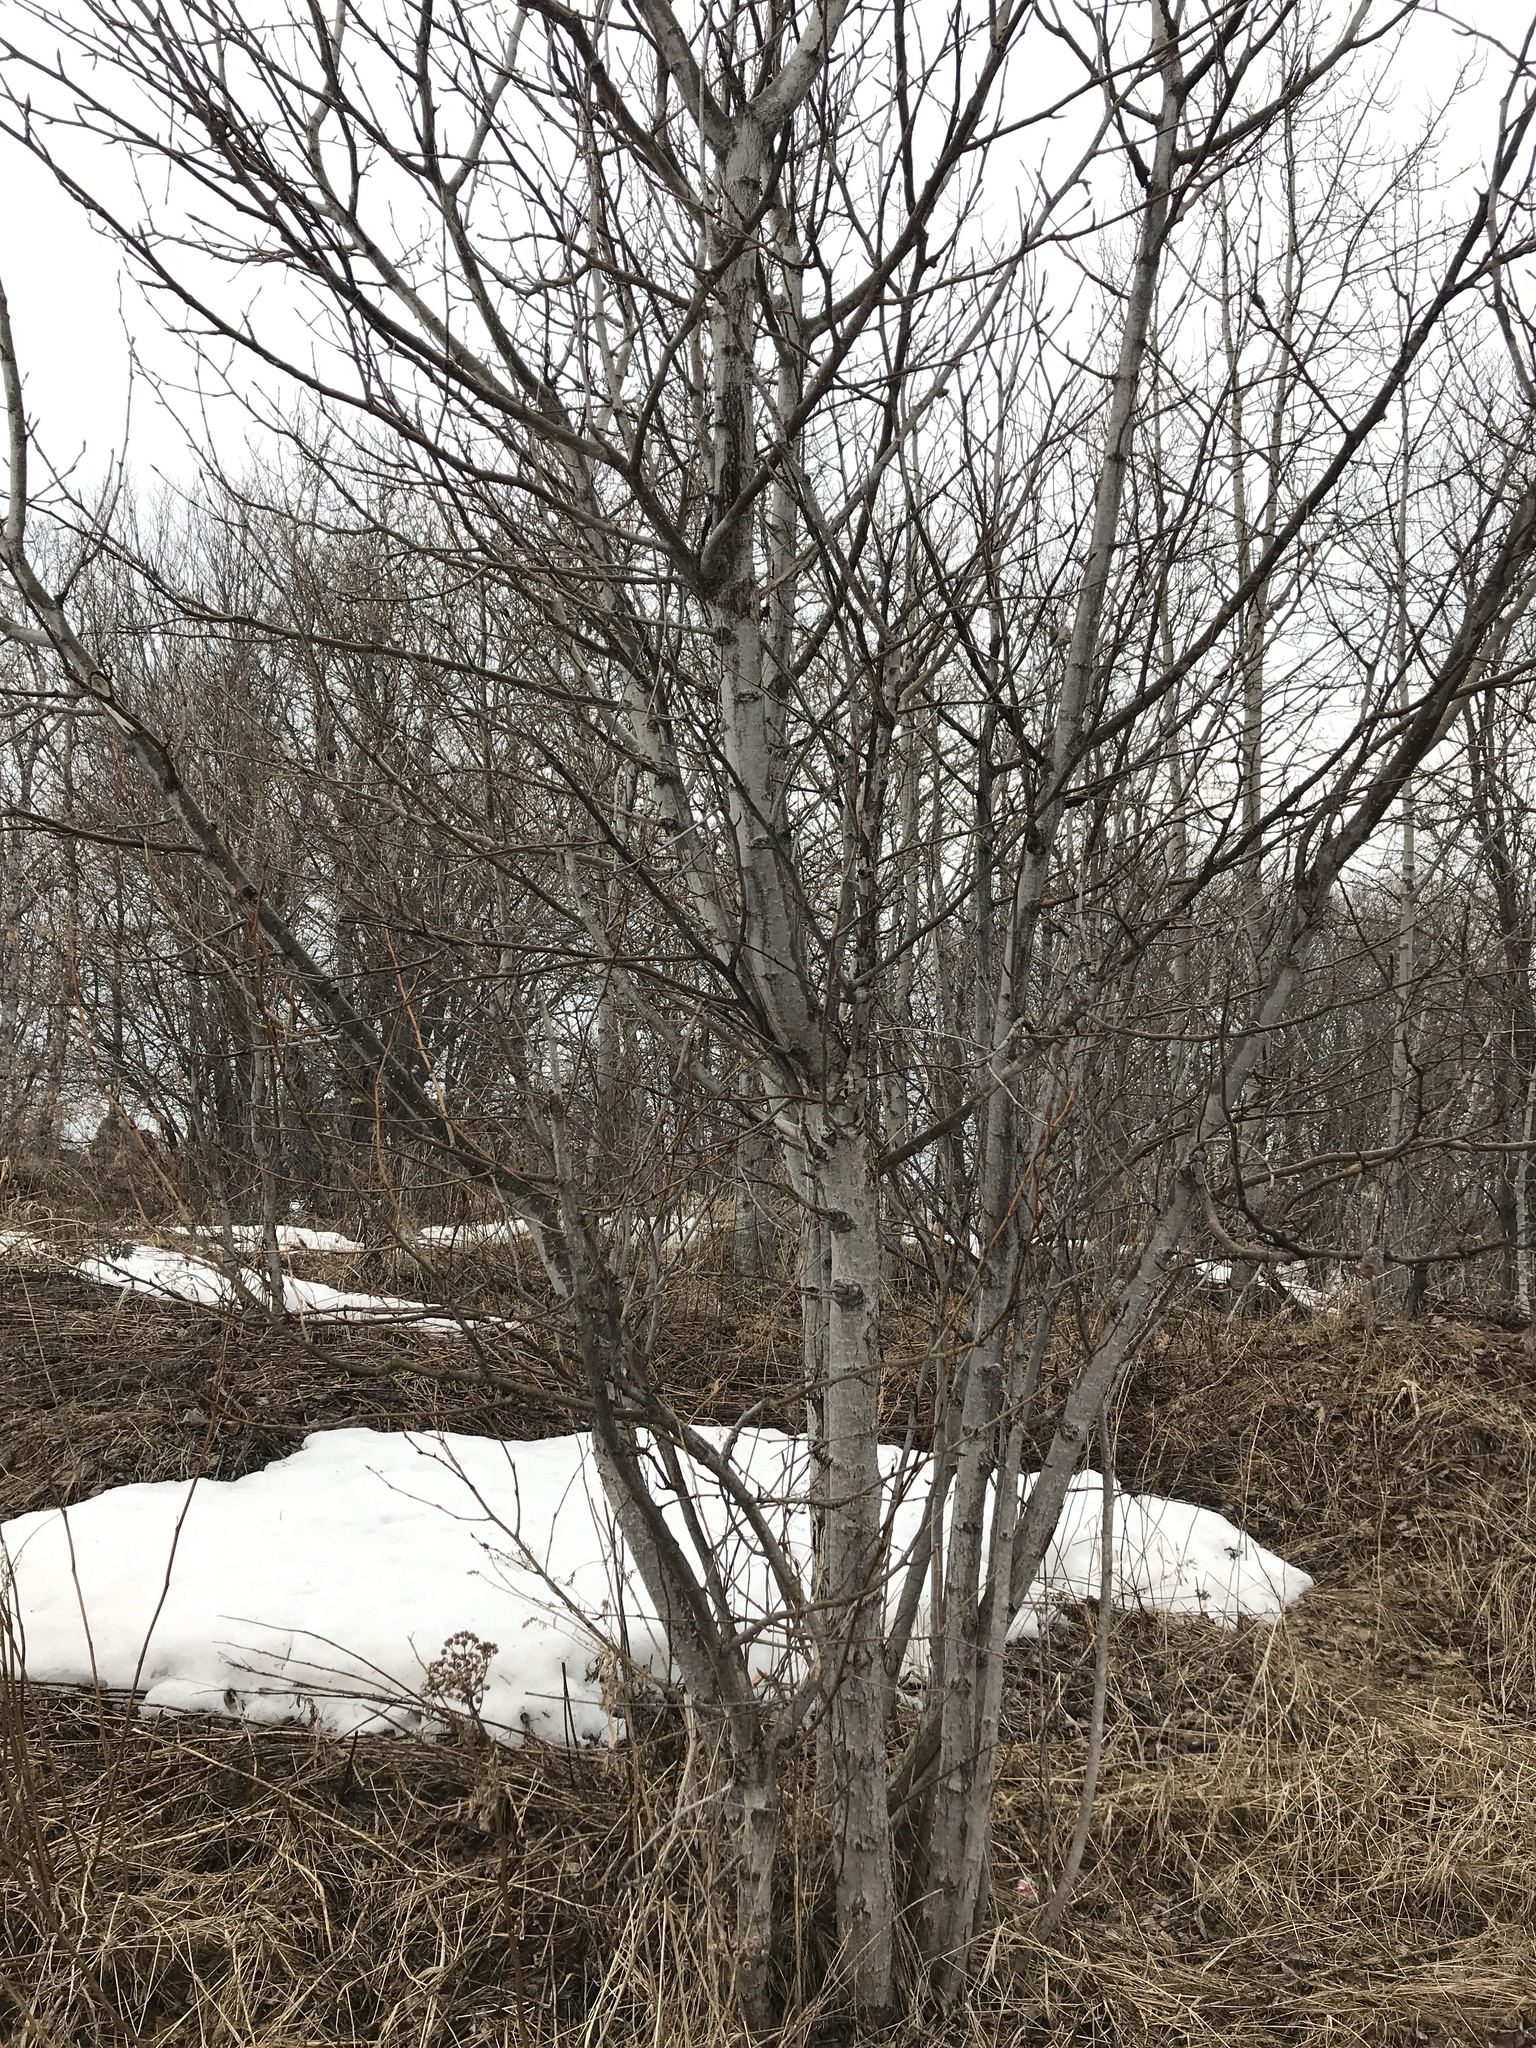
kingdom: Plantae
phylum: Tracheophyta
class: Magnoliopsida
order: Malpighiales
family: Salicaceae
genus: Populus
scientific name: Populus balsamifera
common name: Balsam poplar
